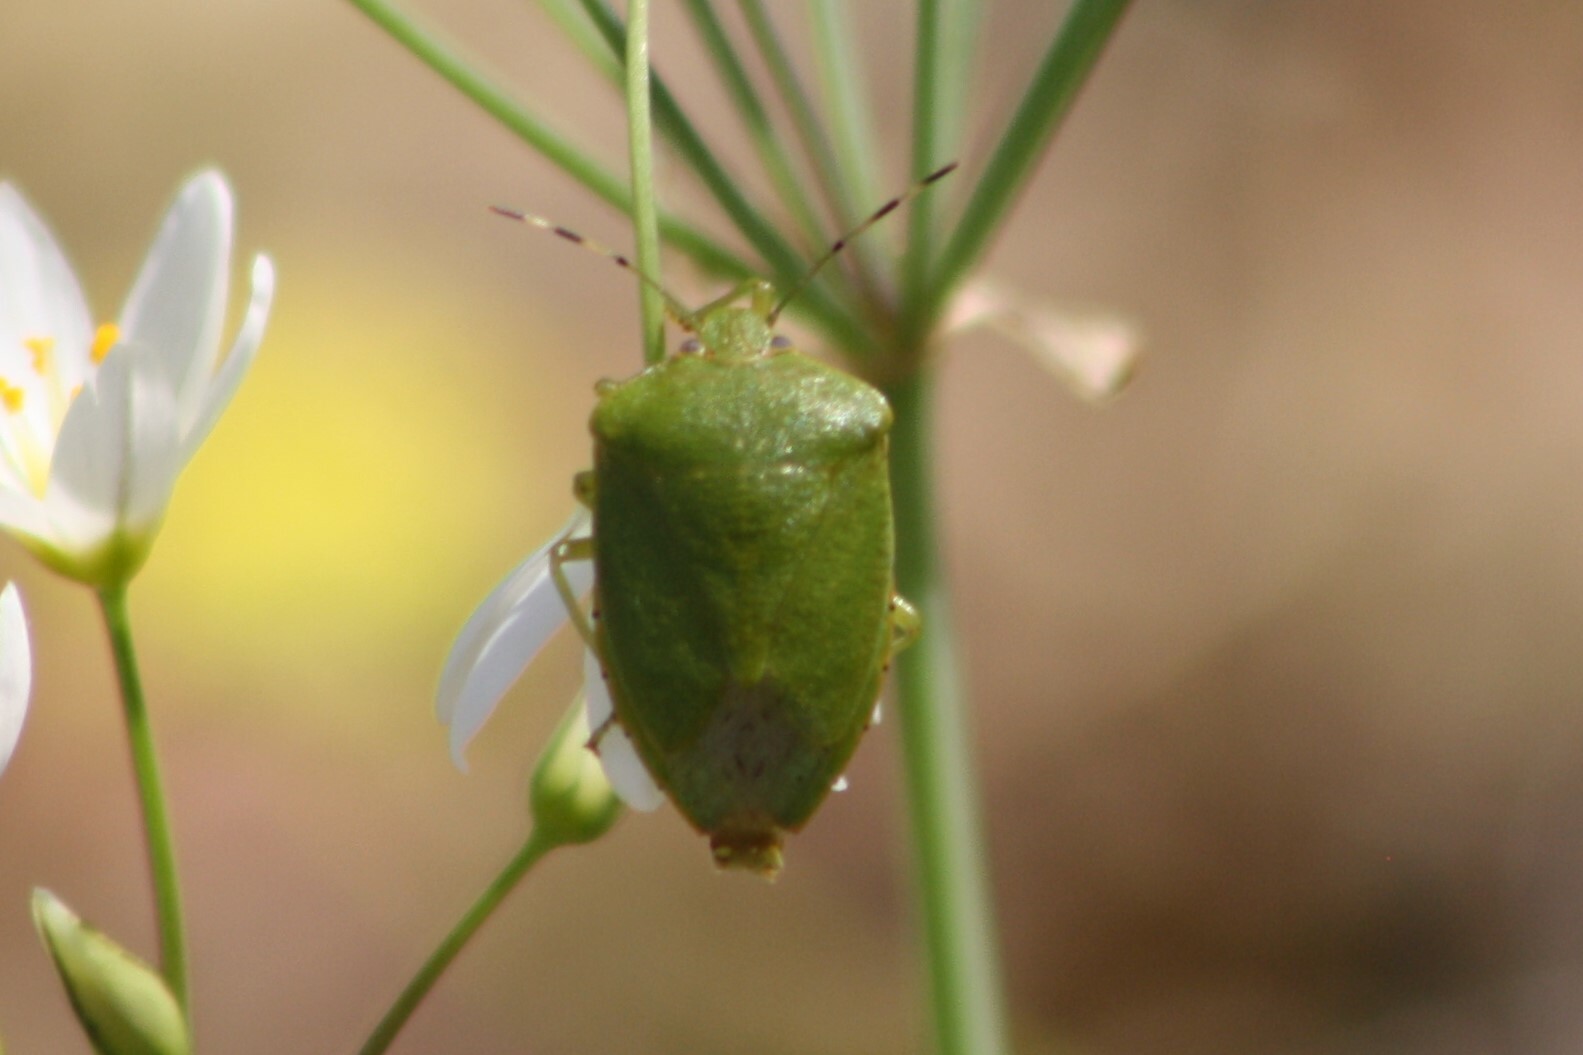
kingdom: Animalia
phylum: Arthropoda
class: Insecta
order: Hemiptera
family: Pentatomidae
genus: Chinavia
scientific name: Chinavia hilaris
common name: Green stink bug
